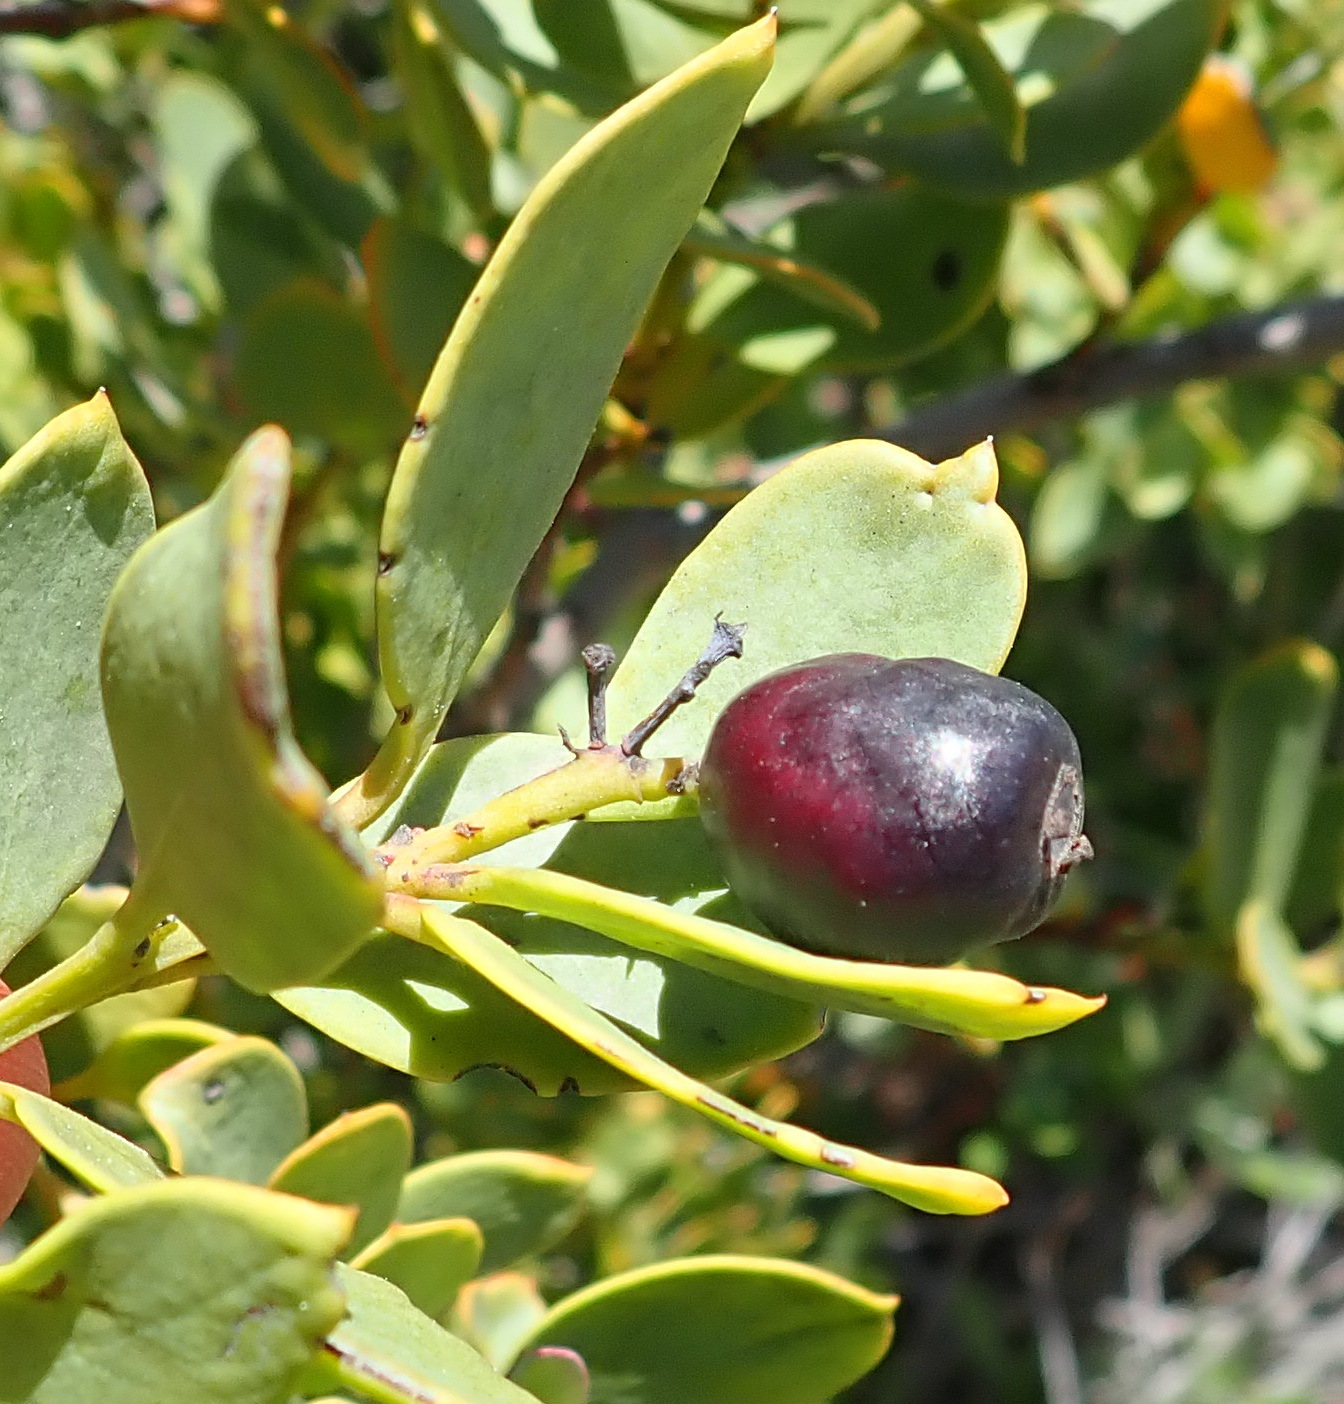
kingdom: Plantae
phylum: Tracheophyta
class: Magnoliopsida
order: Santalales
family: Santalaceae
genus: Osyris
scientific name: Osyris compressa
